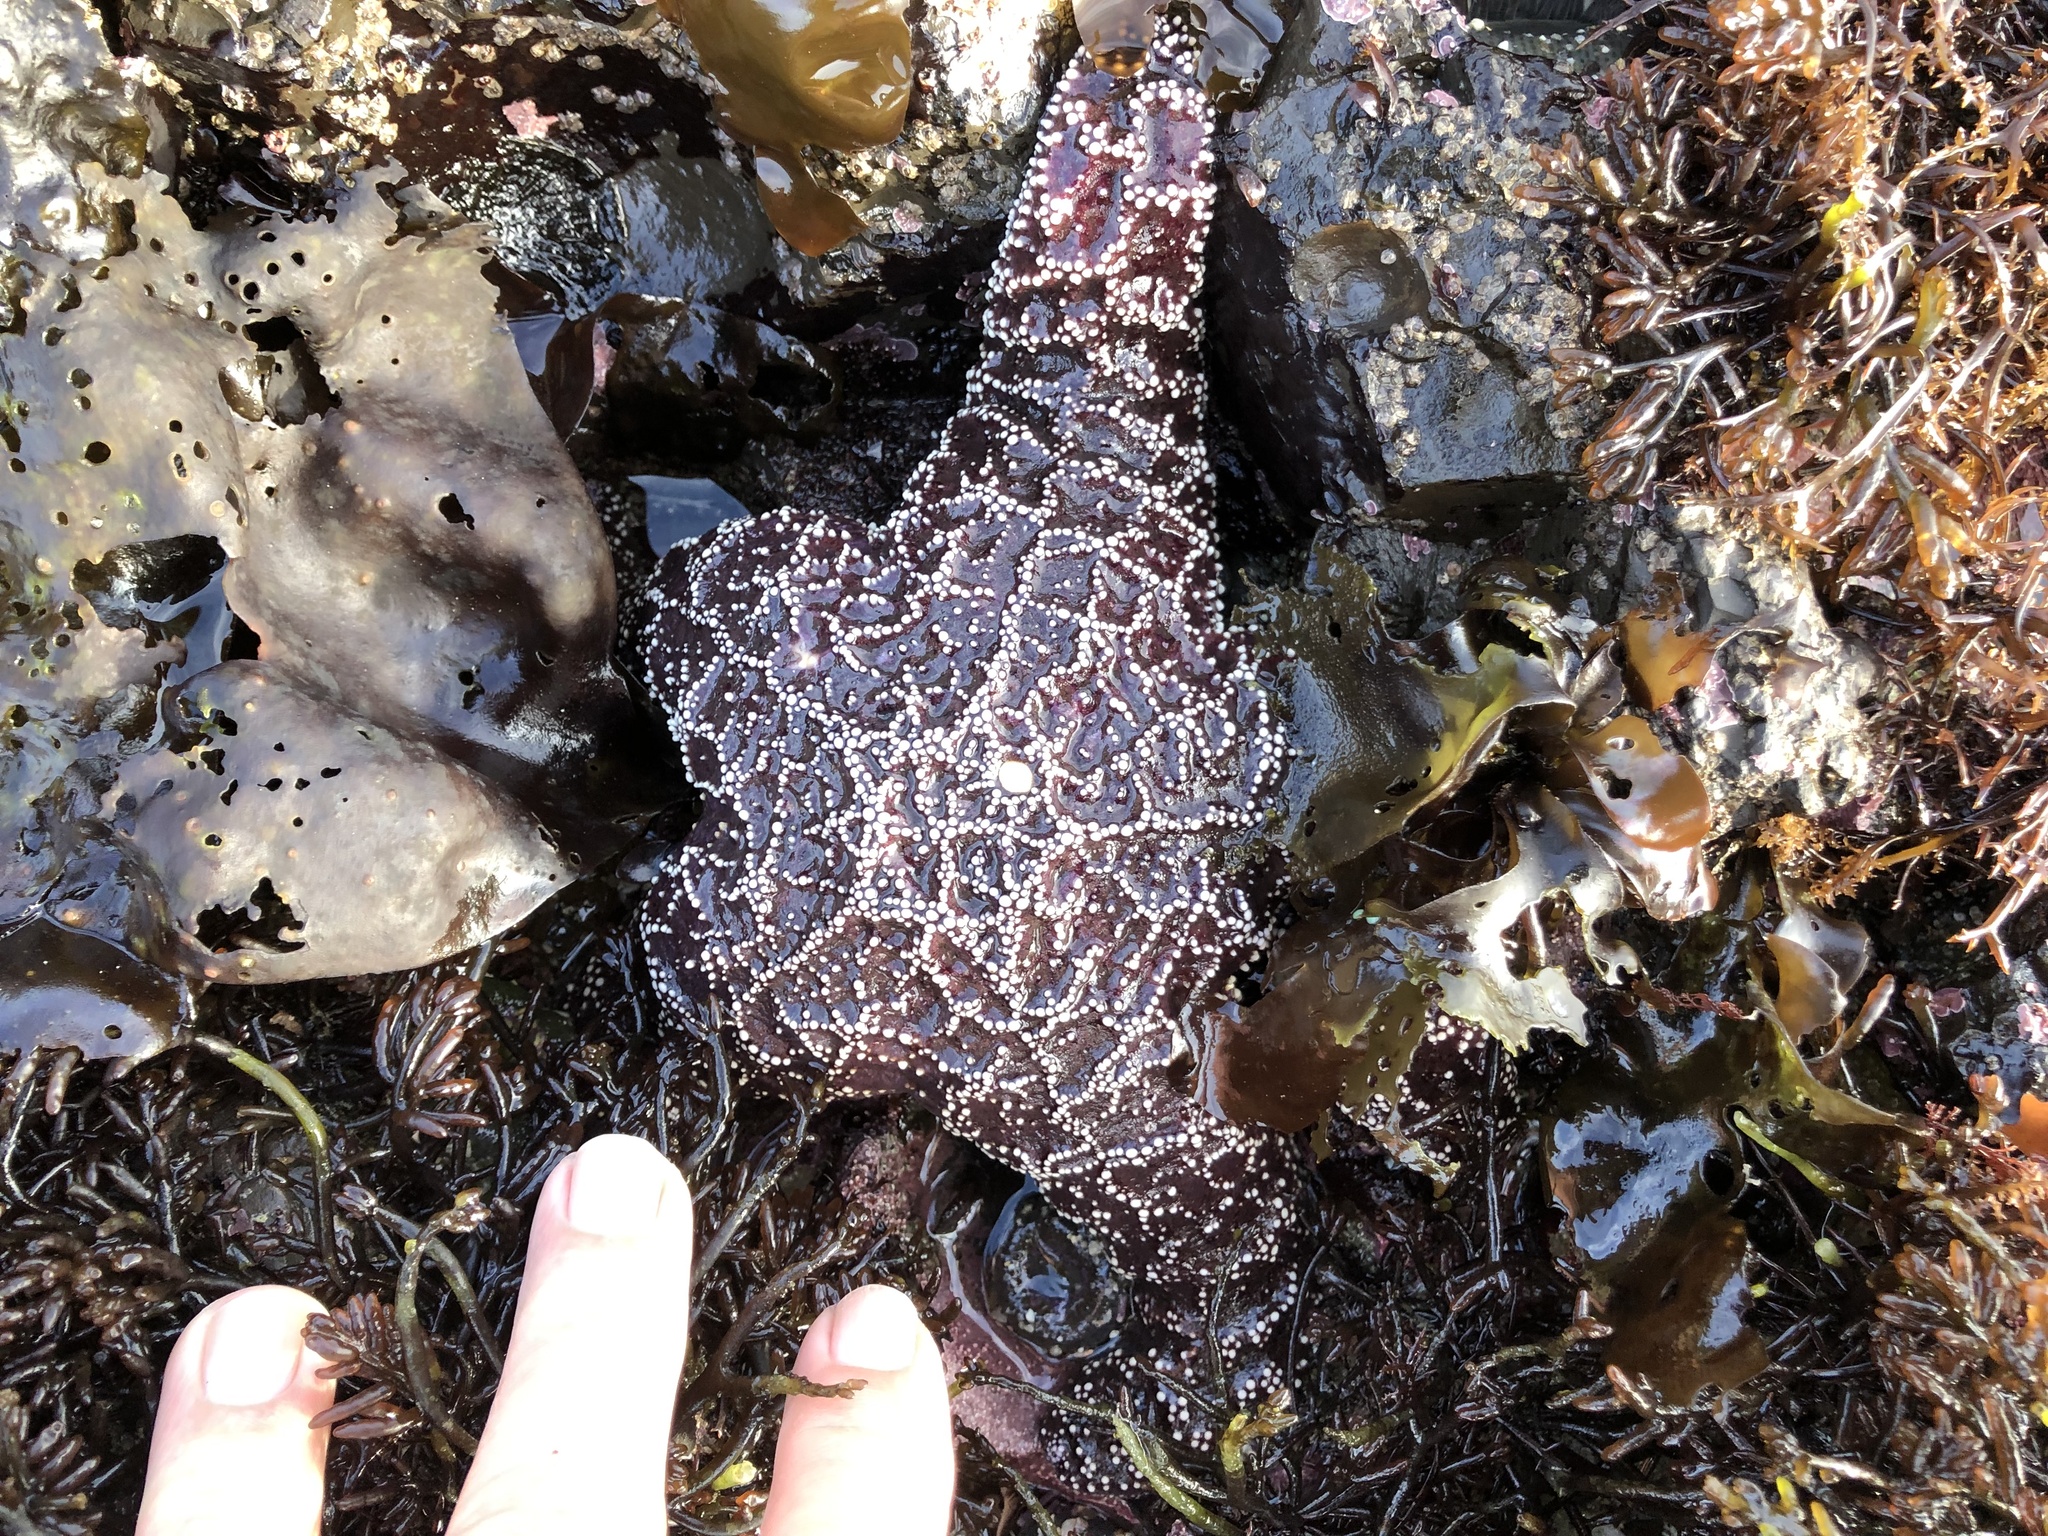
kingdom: Animalia
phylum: Echinodermata
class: Asteroidea
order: Forcipulatida
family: Asteriidae
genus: Pisaster
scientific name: Pisaster ochraceus
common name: Ochre stars
